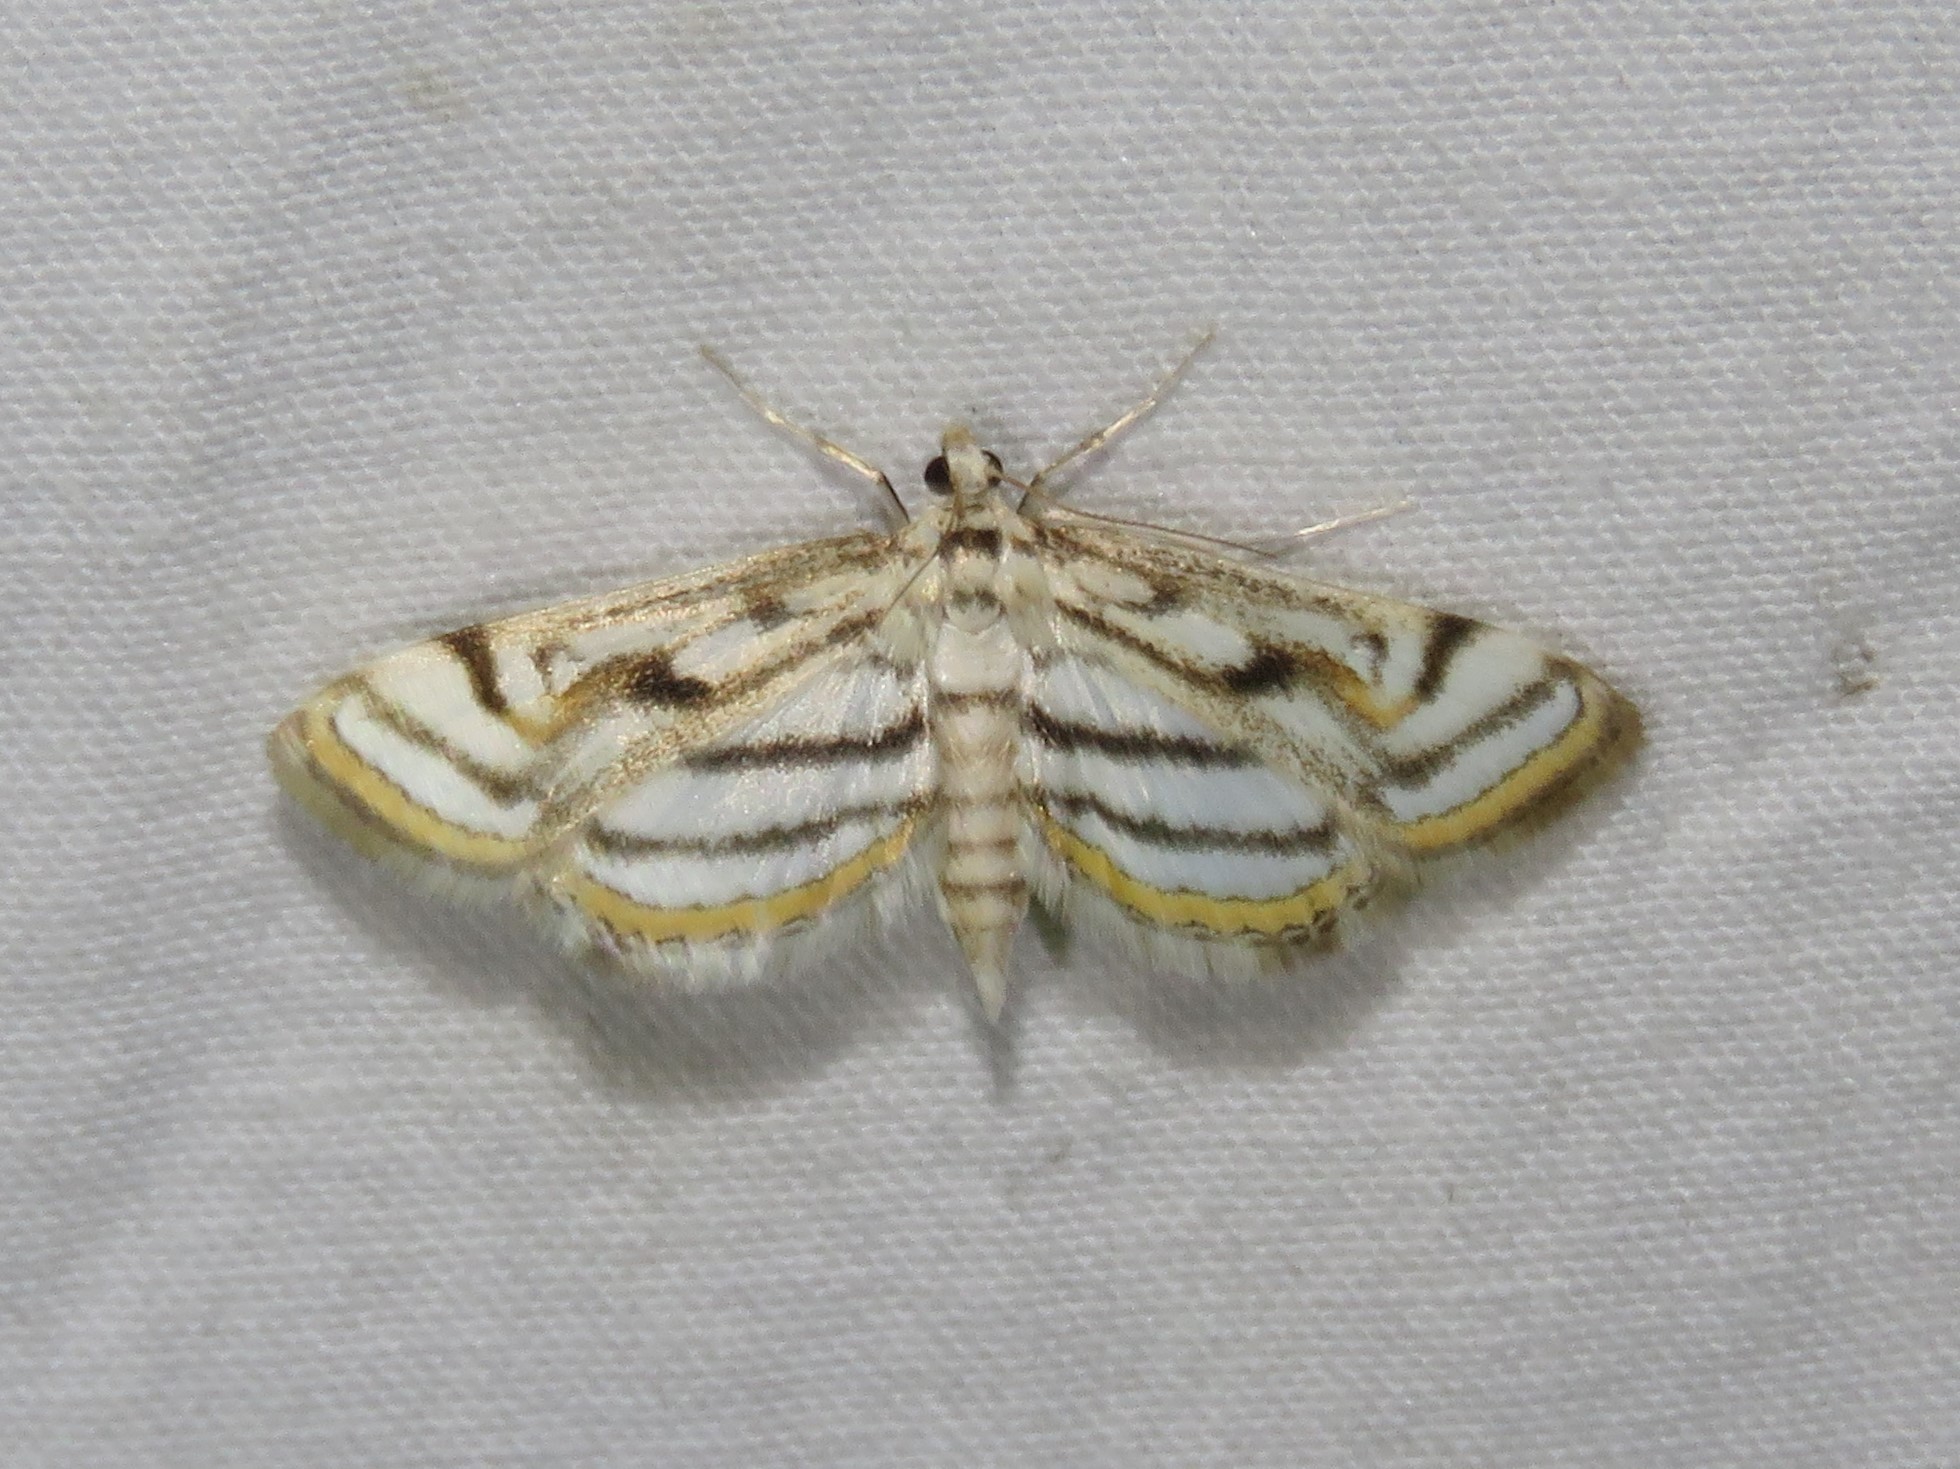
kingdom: Animalia
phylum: Arthropoda
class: Insecta
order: Lepidoptera
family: Crambidae
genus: Parapoynx
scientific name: Parapoynx badiusalis
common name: Chestnut-marked pondweed moth
